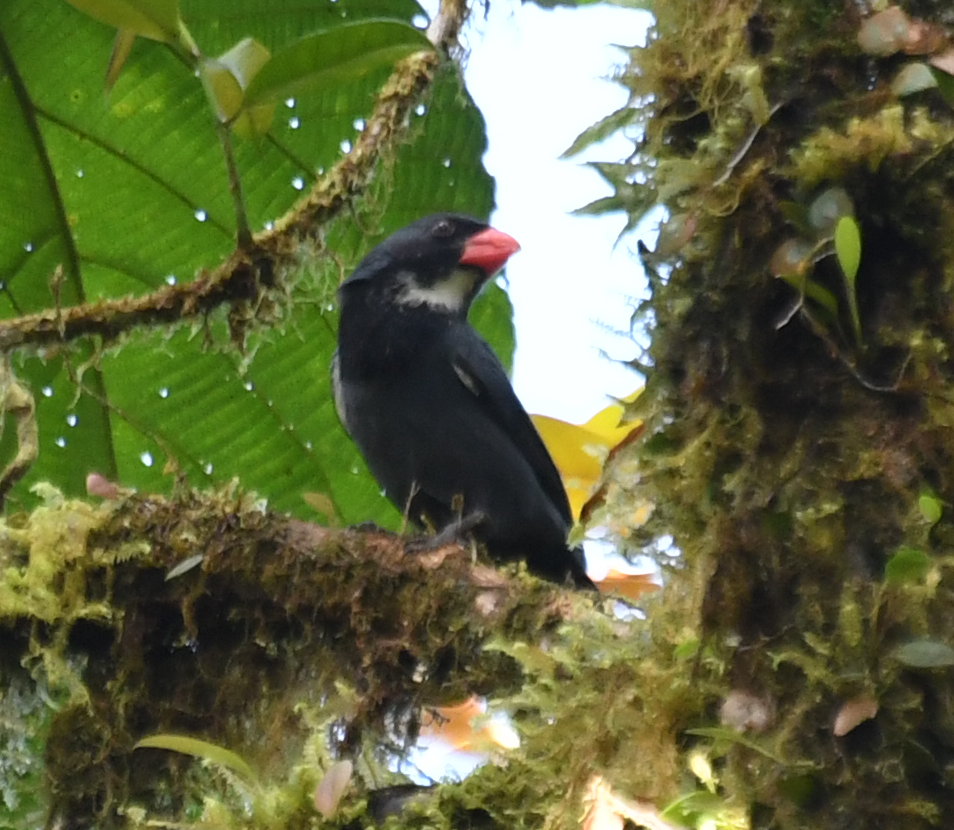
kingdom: Animalia
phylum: Chordata
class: Aves
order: Passeriformes
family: Thraupidae
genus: Saltator
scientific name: Saltator grossus
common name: Slate-colored grosbeak
